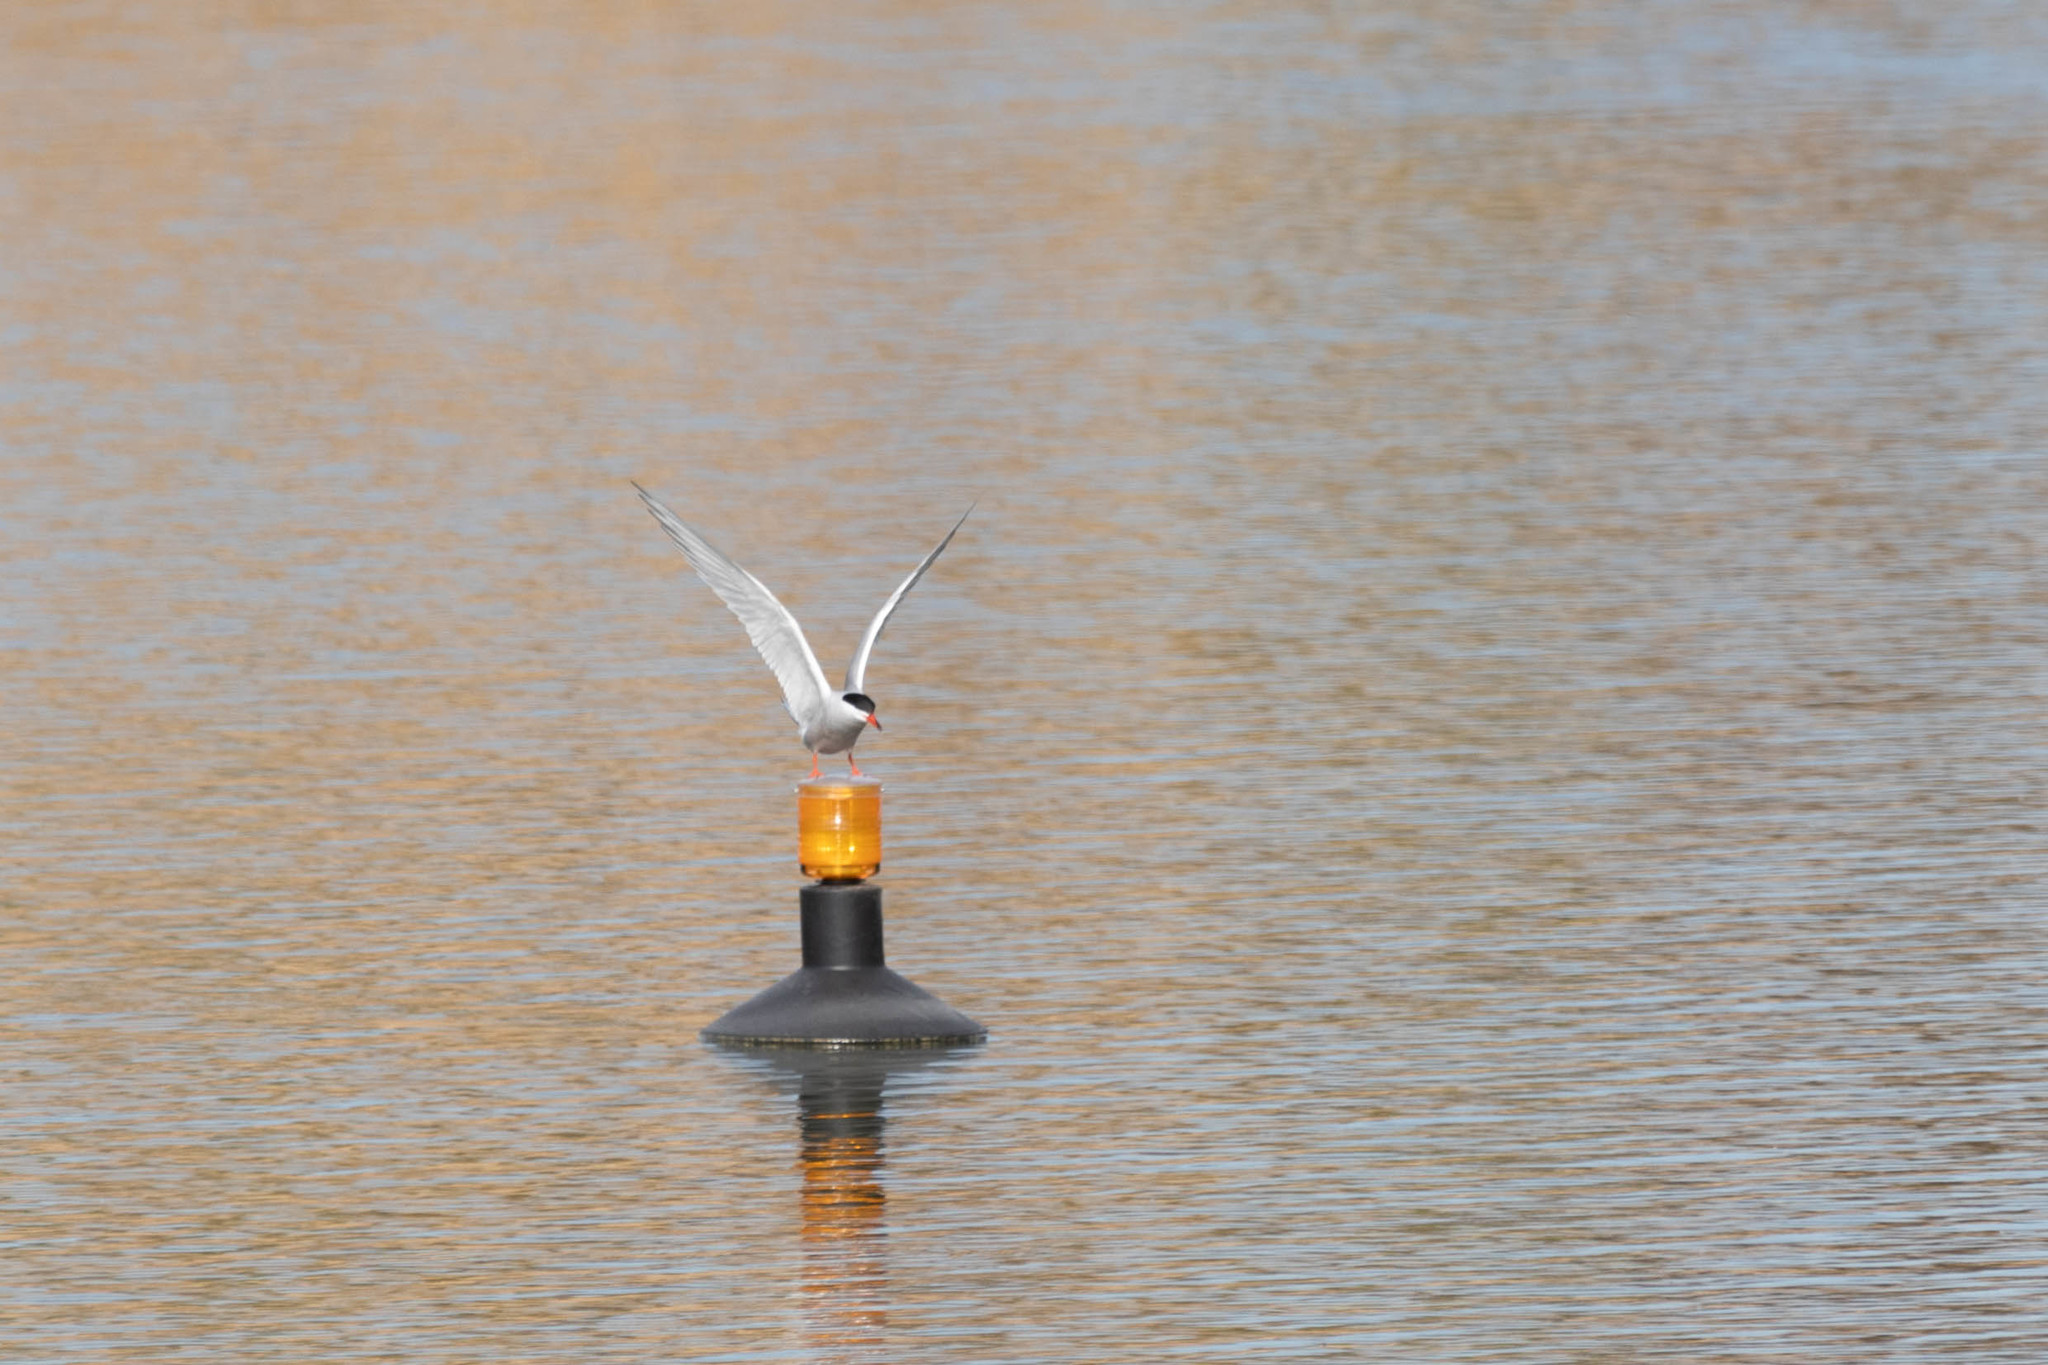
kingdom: Animalia
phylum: Chordata
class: Aves
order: Charadriiformes
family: Laridae
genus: Sterna
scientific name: Sterna hirundo
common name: Common tern
